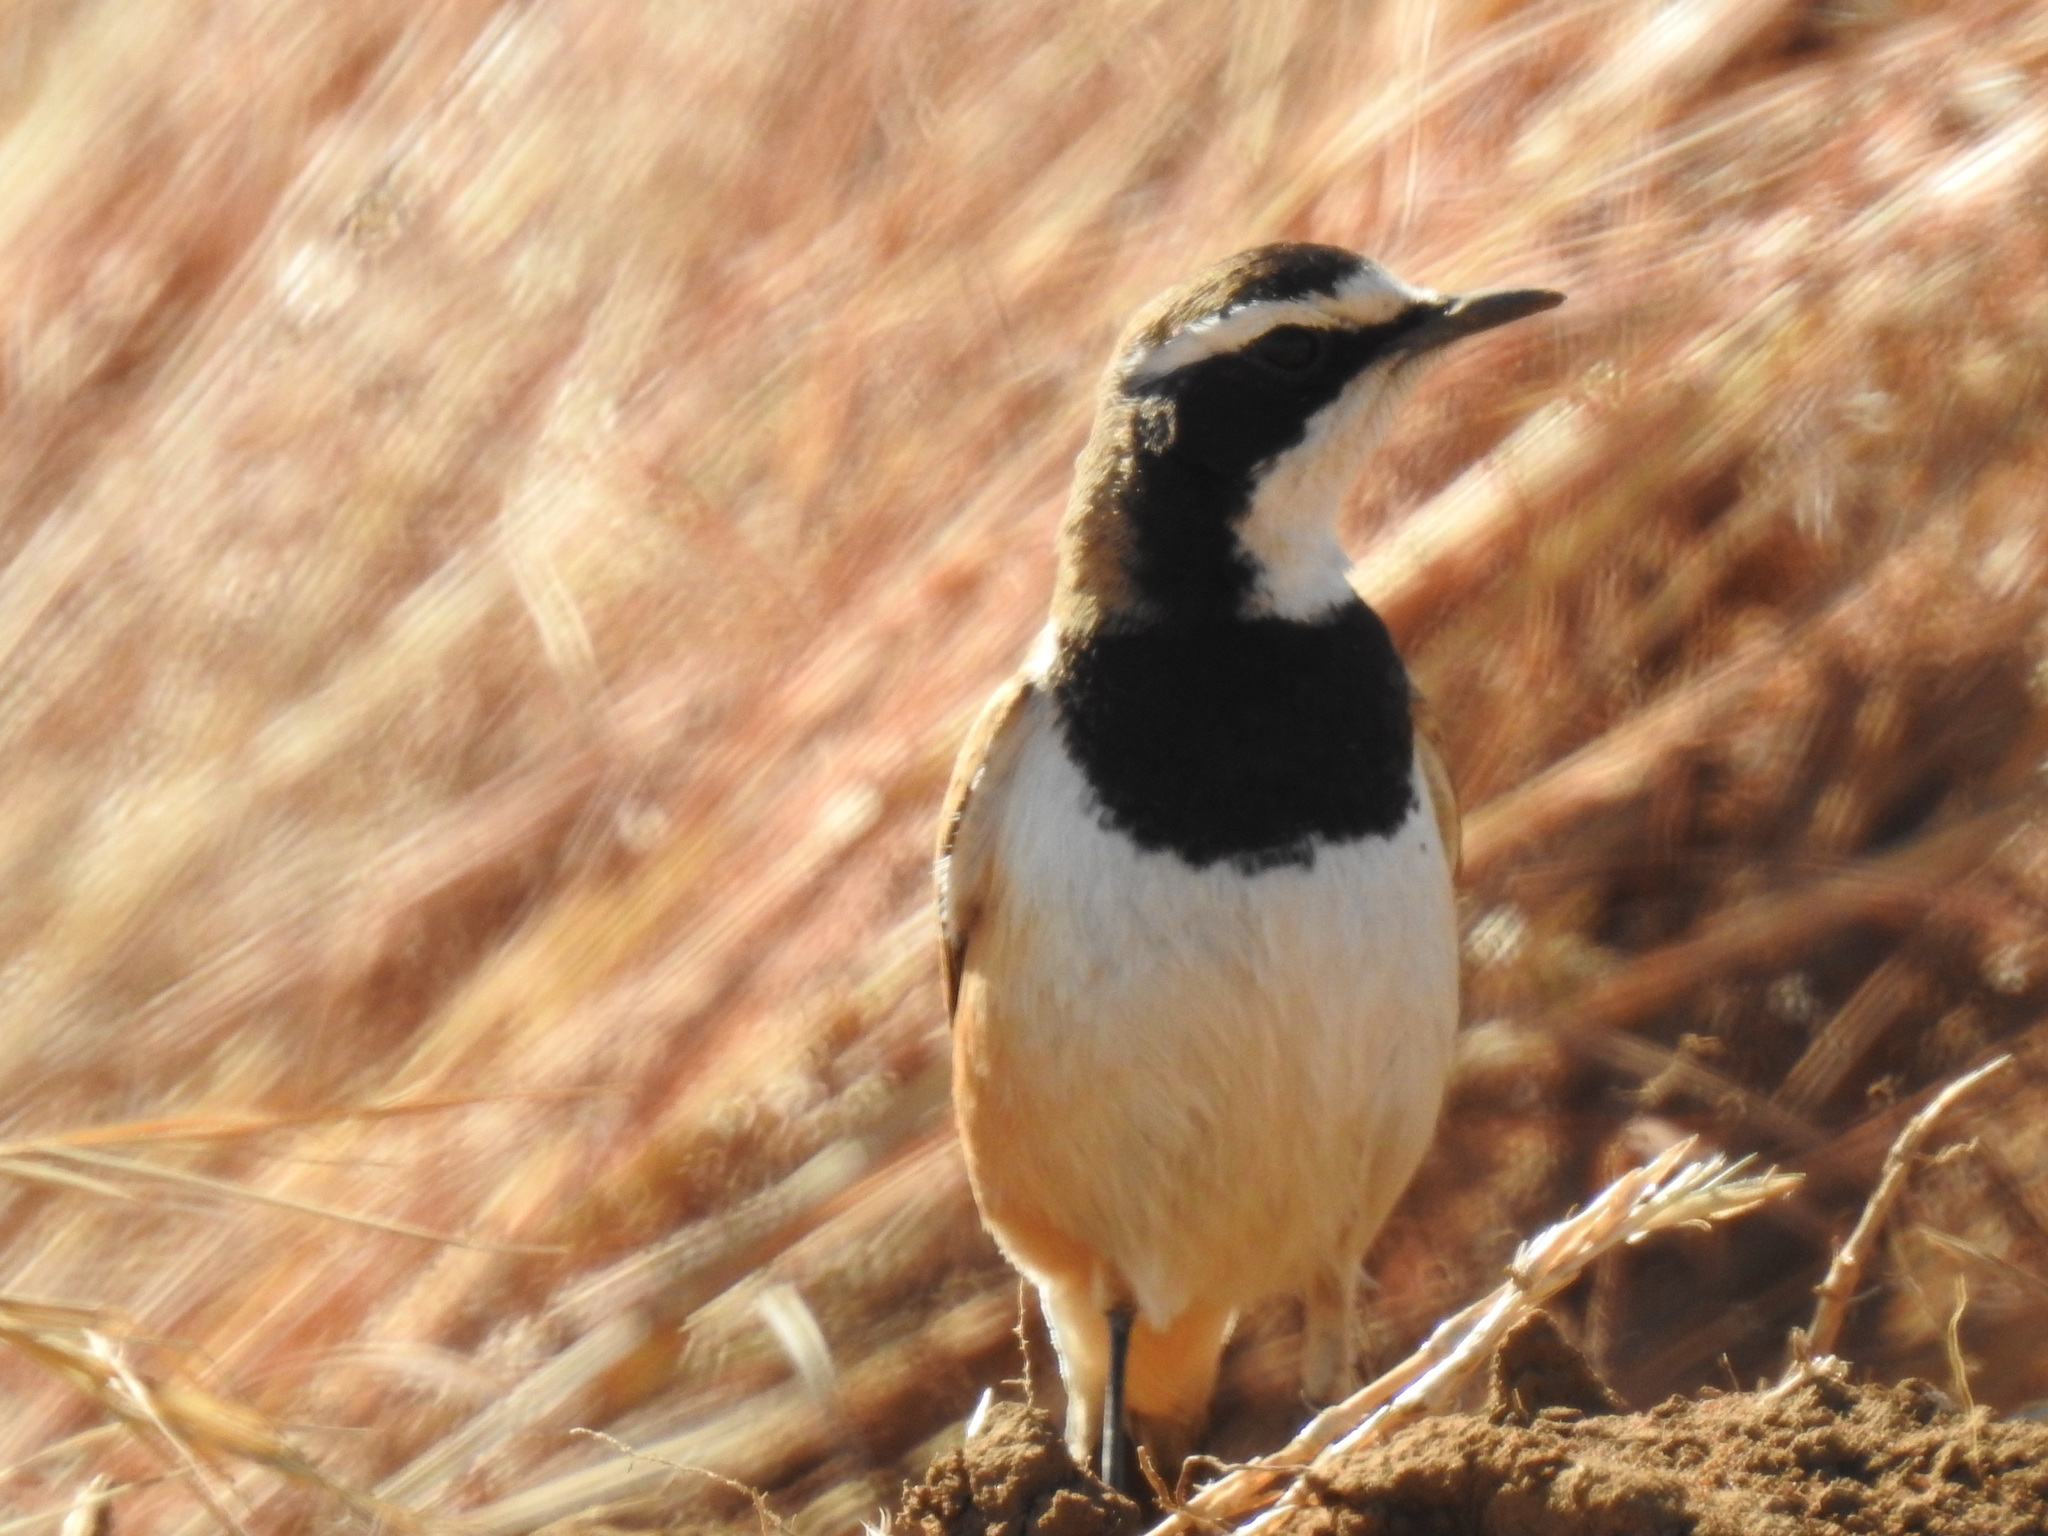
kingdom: Animalia
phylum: Chordata
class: Aves
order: Passeriformes
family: Muscicapidae
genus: Oenanthe
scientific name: Oenanthe pileata
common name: Capped wheatear
